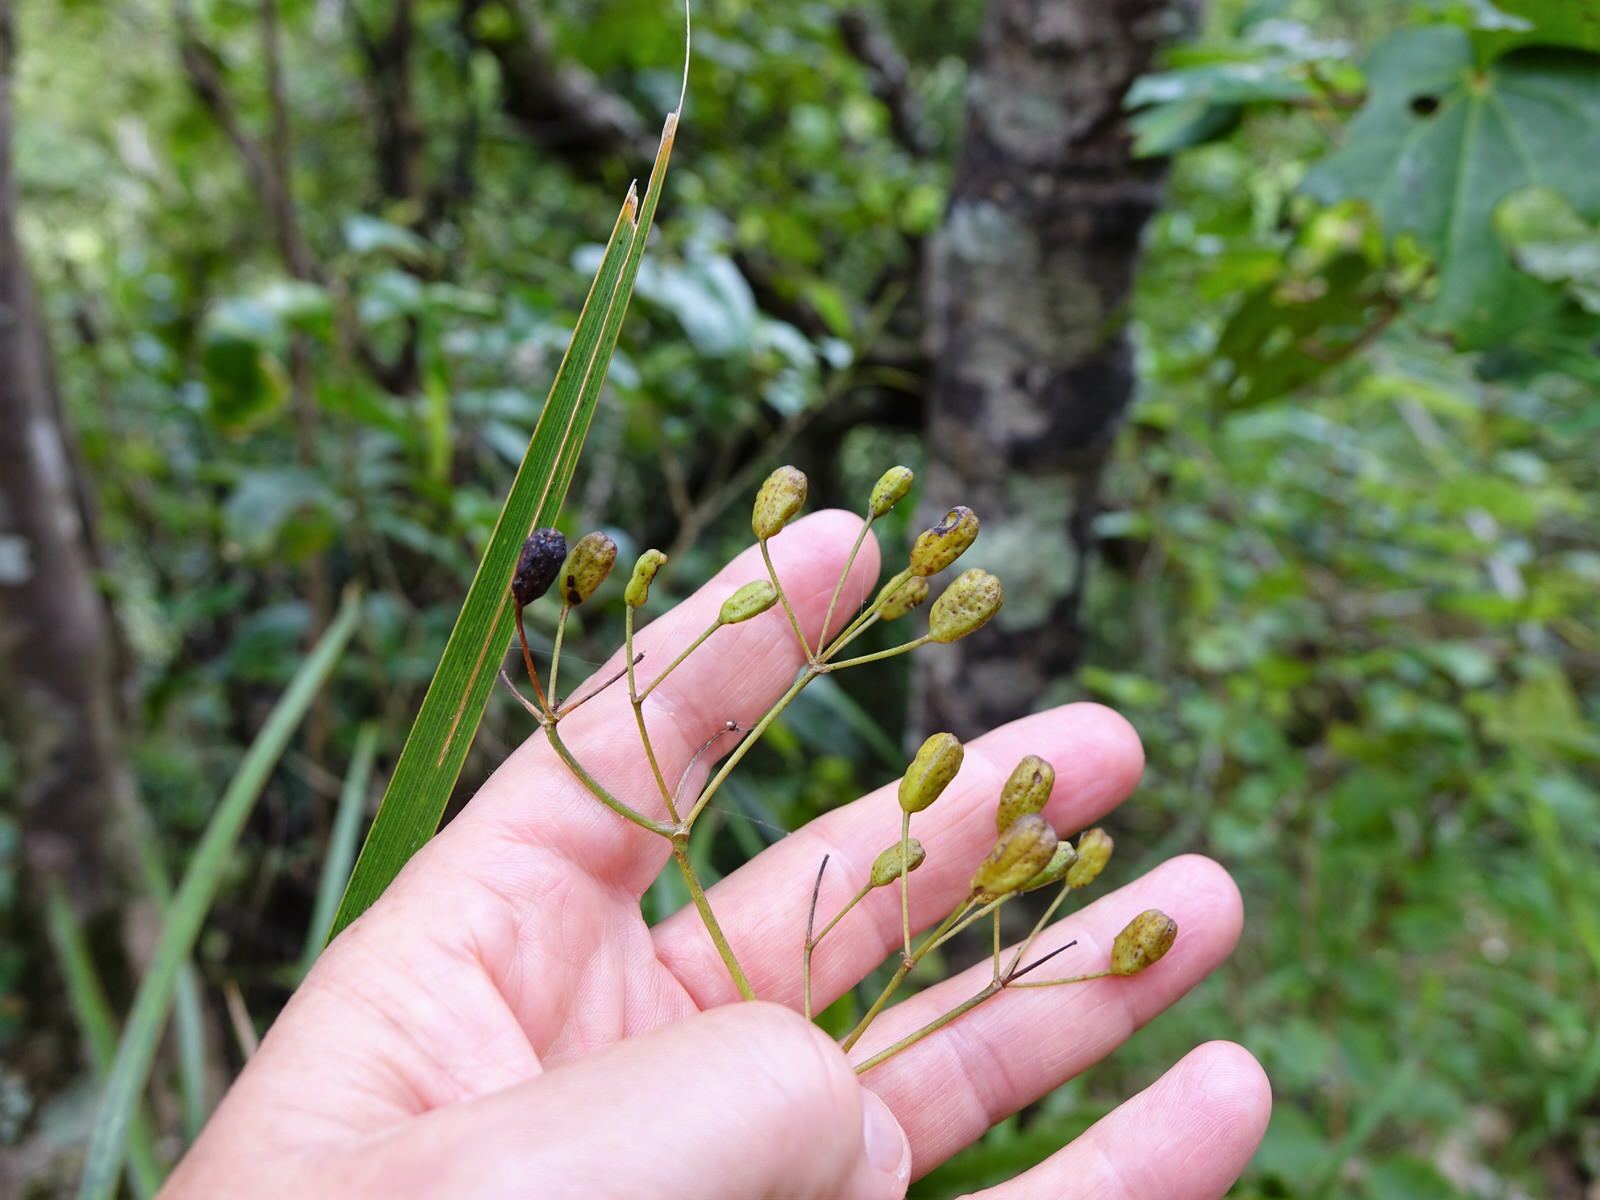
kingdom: Plantae
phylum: Tracheophyta
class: Liliopsida
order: Asparagales
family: Iridaceae
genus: Libertia
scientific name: Libertia grandiflora
